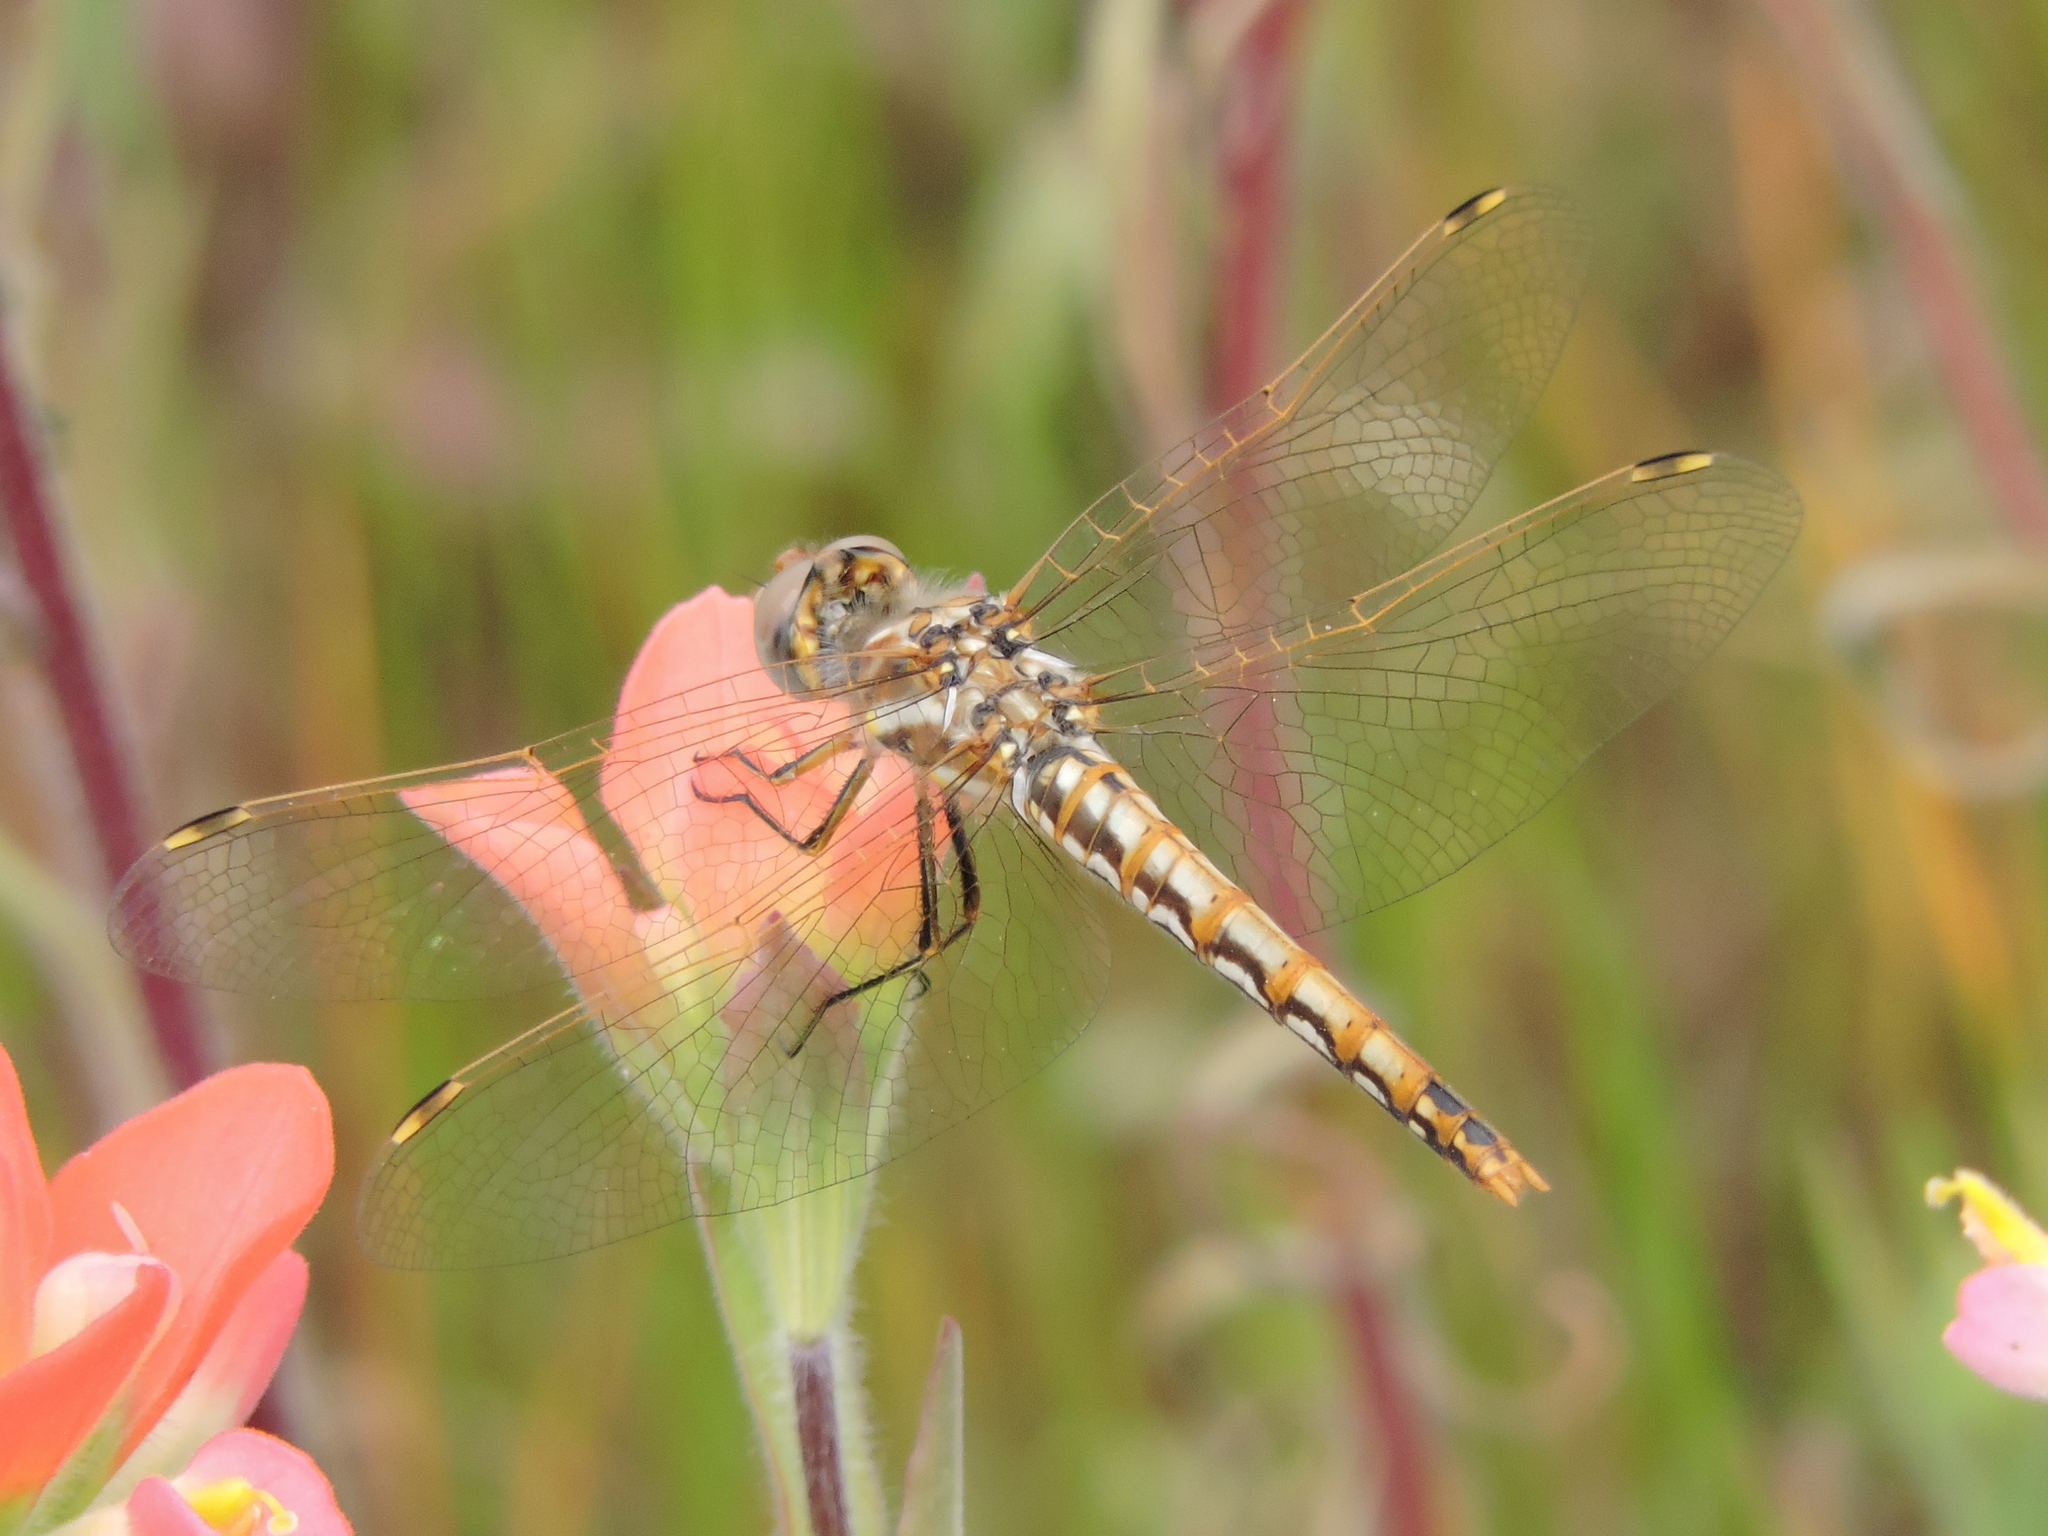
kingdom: Animalia
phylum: Arthropoda
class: Insecta
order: Odonata
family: Libellulidae
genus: Sympetrum
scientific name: Sympetrum corruptum
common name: Variegated meadowhawk
